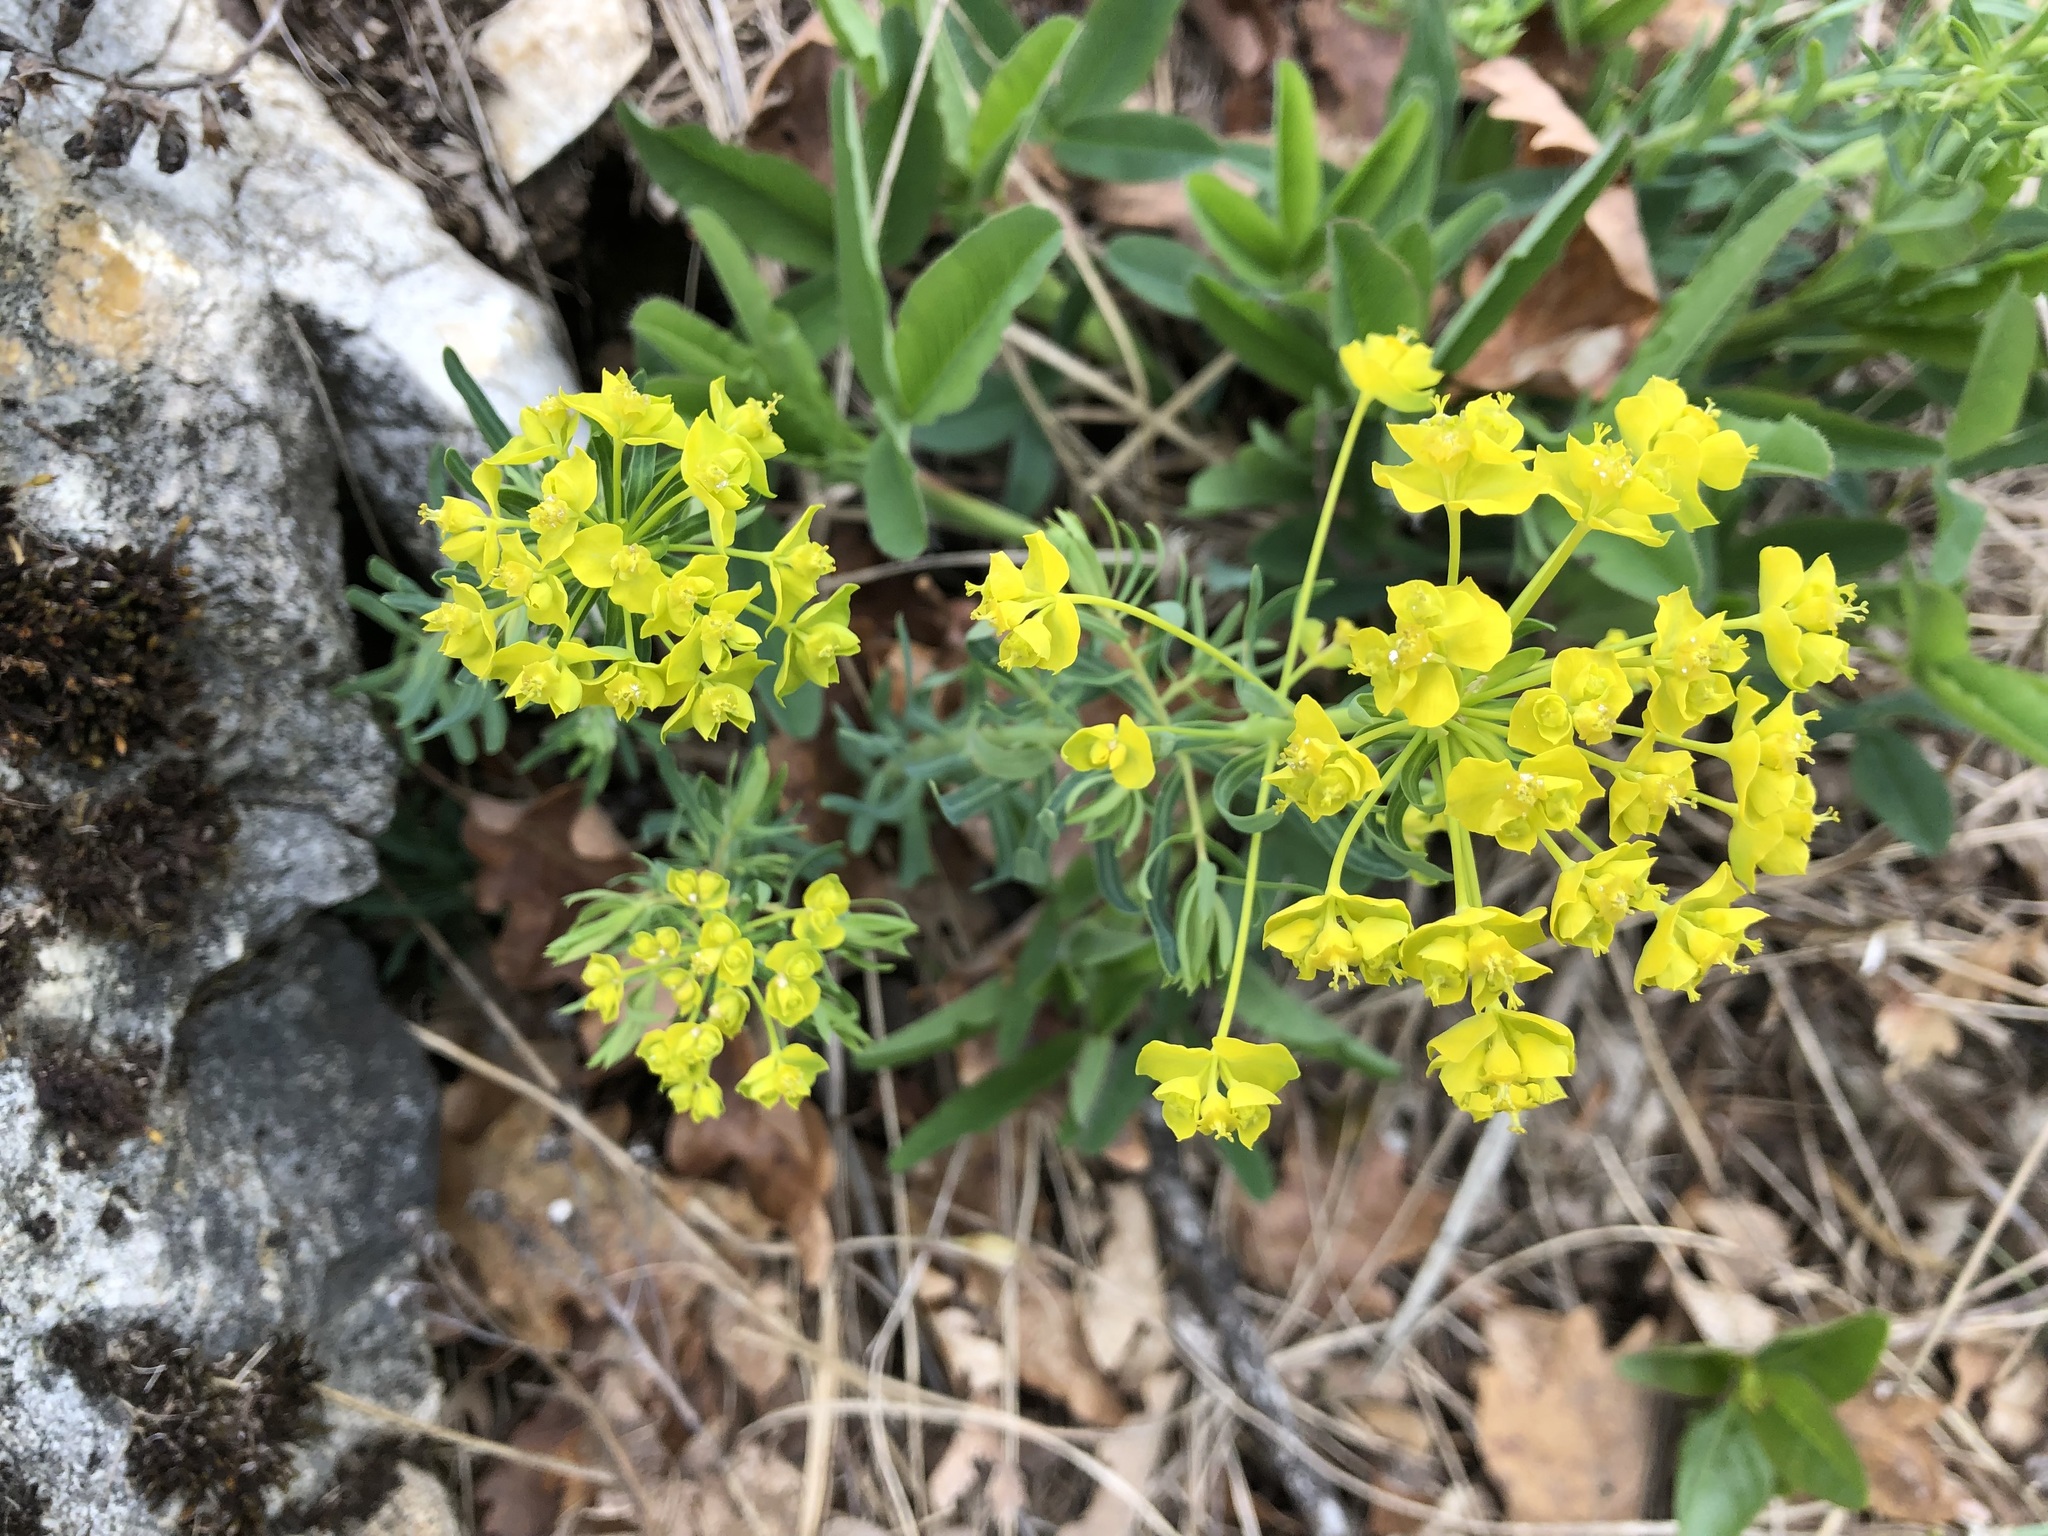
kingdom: Plantae
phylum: Tracheophyta
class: Magnoliopsida
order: Malpighiales
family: Euphorbiaceae
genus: Euphorbia
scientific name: Euphorbia cyparissias
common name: Cypress spurge
